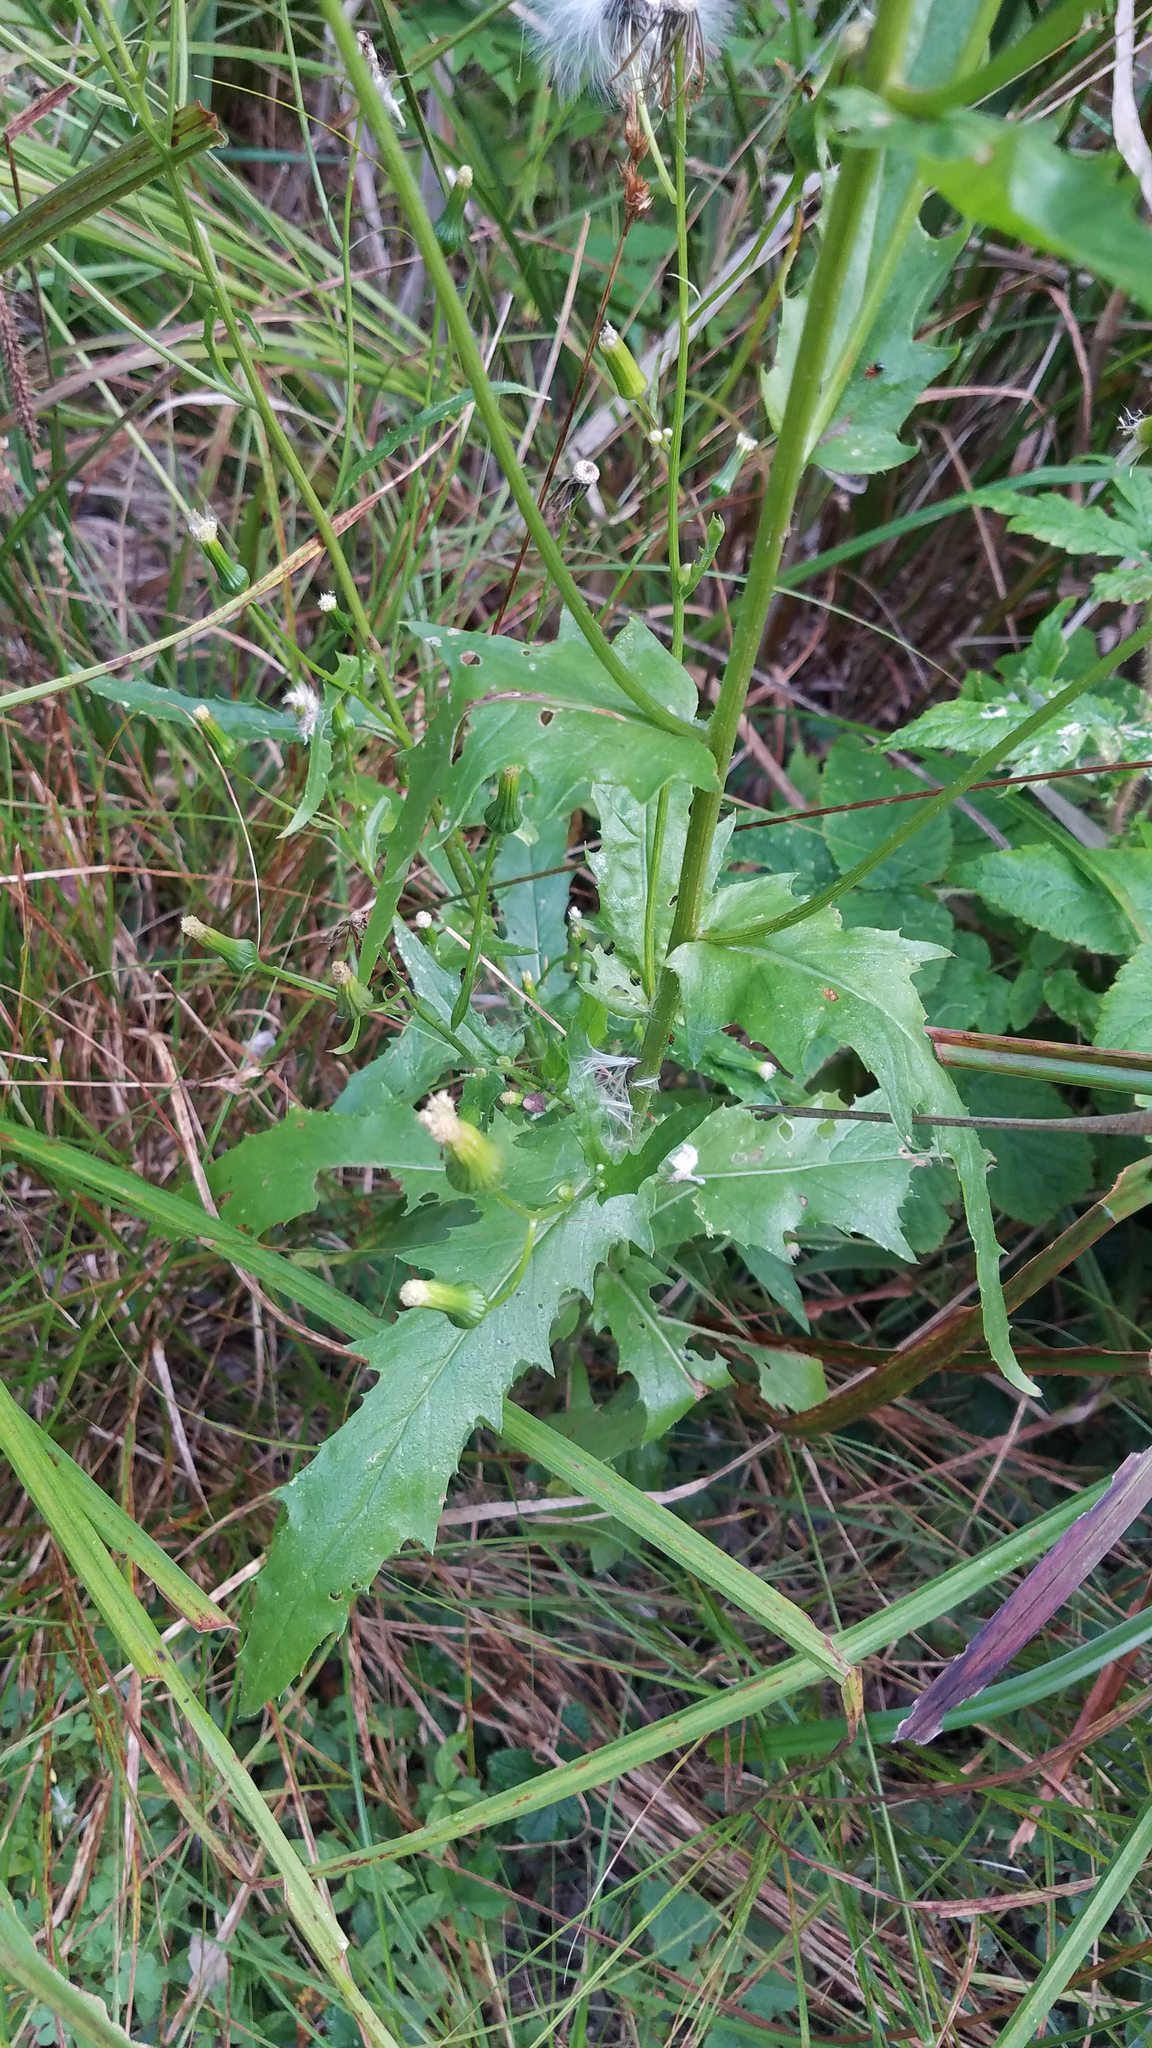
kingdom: Plantae
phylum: Tracheophyta
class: Magnoliopsida
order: Asterales
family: Asteraceae
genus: Erechtites
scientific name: Erechtites hieraciifolius
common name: American burnweed
